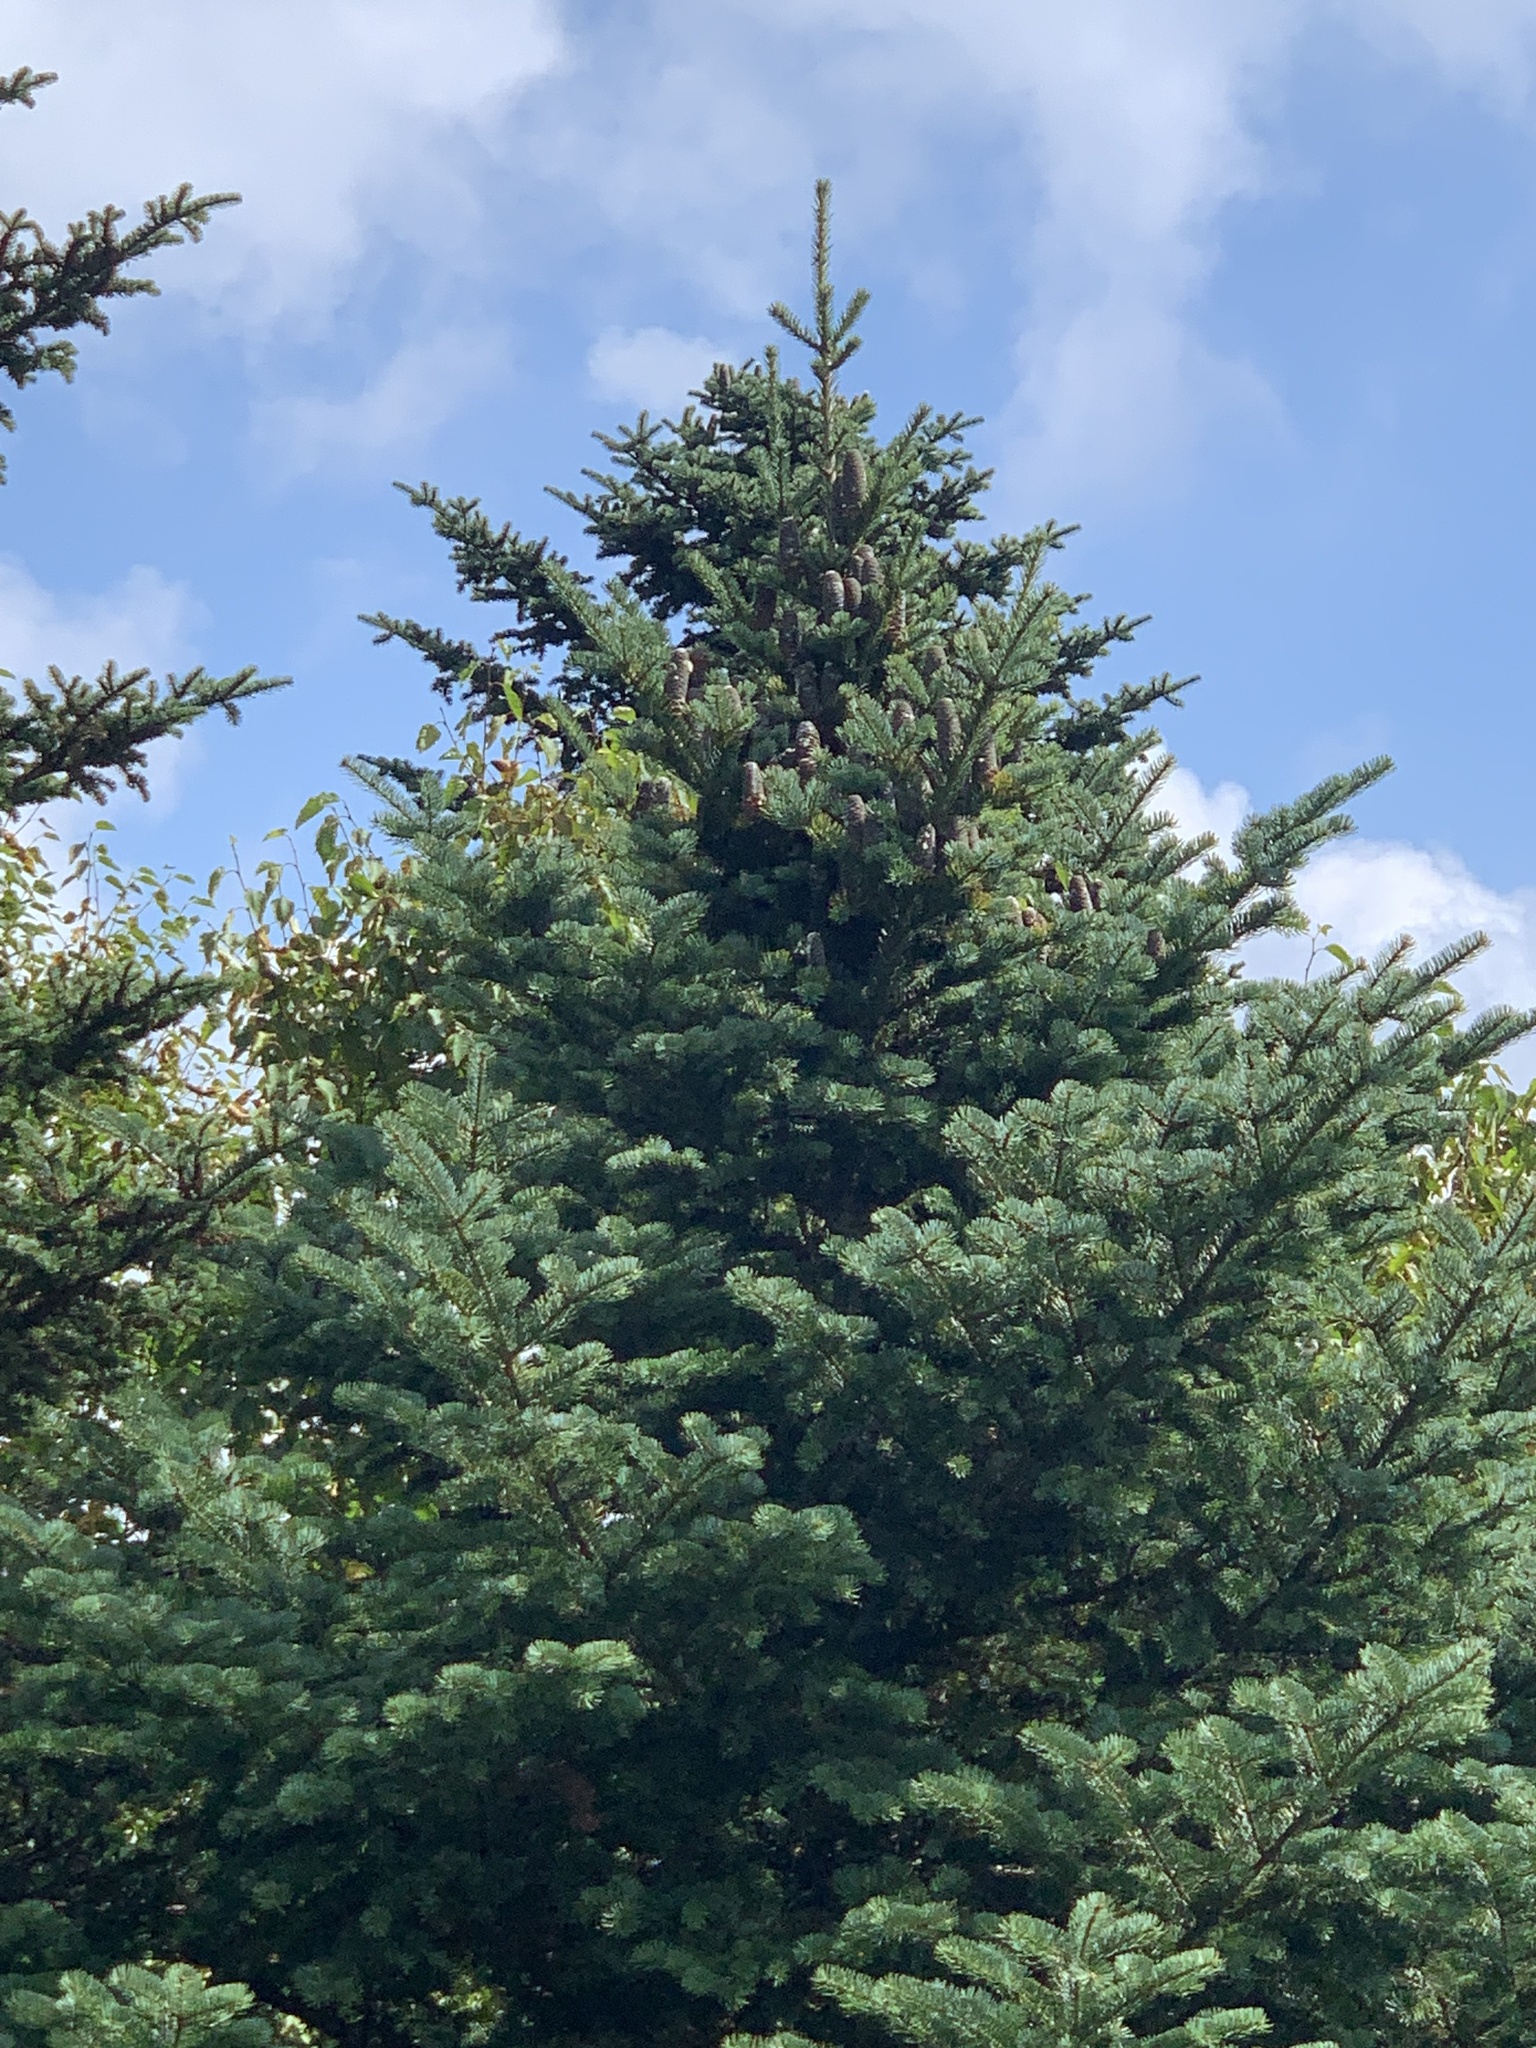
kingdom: Plantae
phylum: Tracheophyta
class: Pinopsida
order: Pinales
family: Pinaceae
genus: Abies
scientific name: Abies balsamea
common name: Balsam fir
